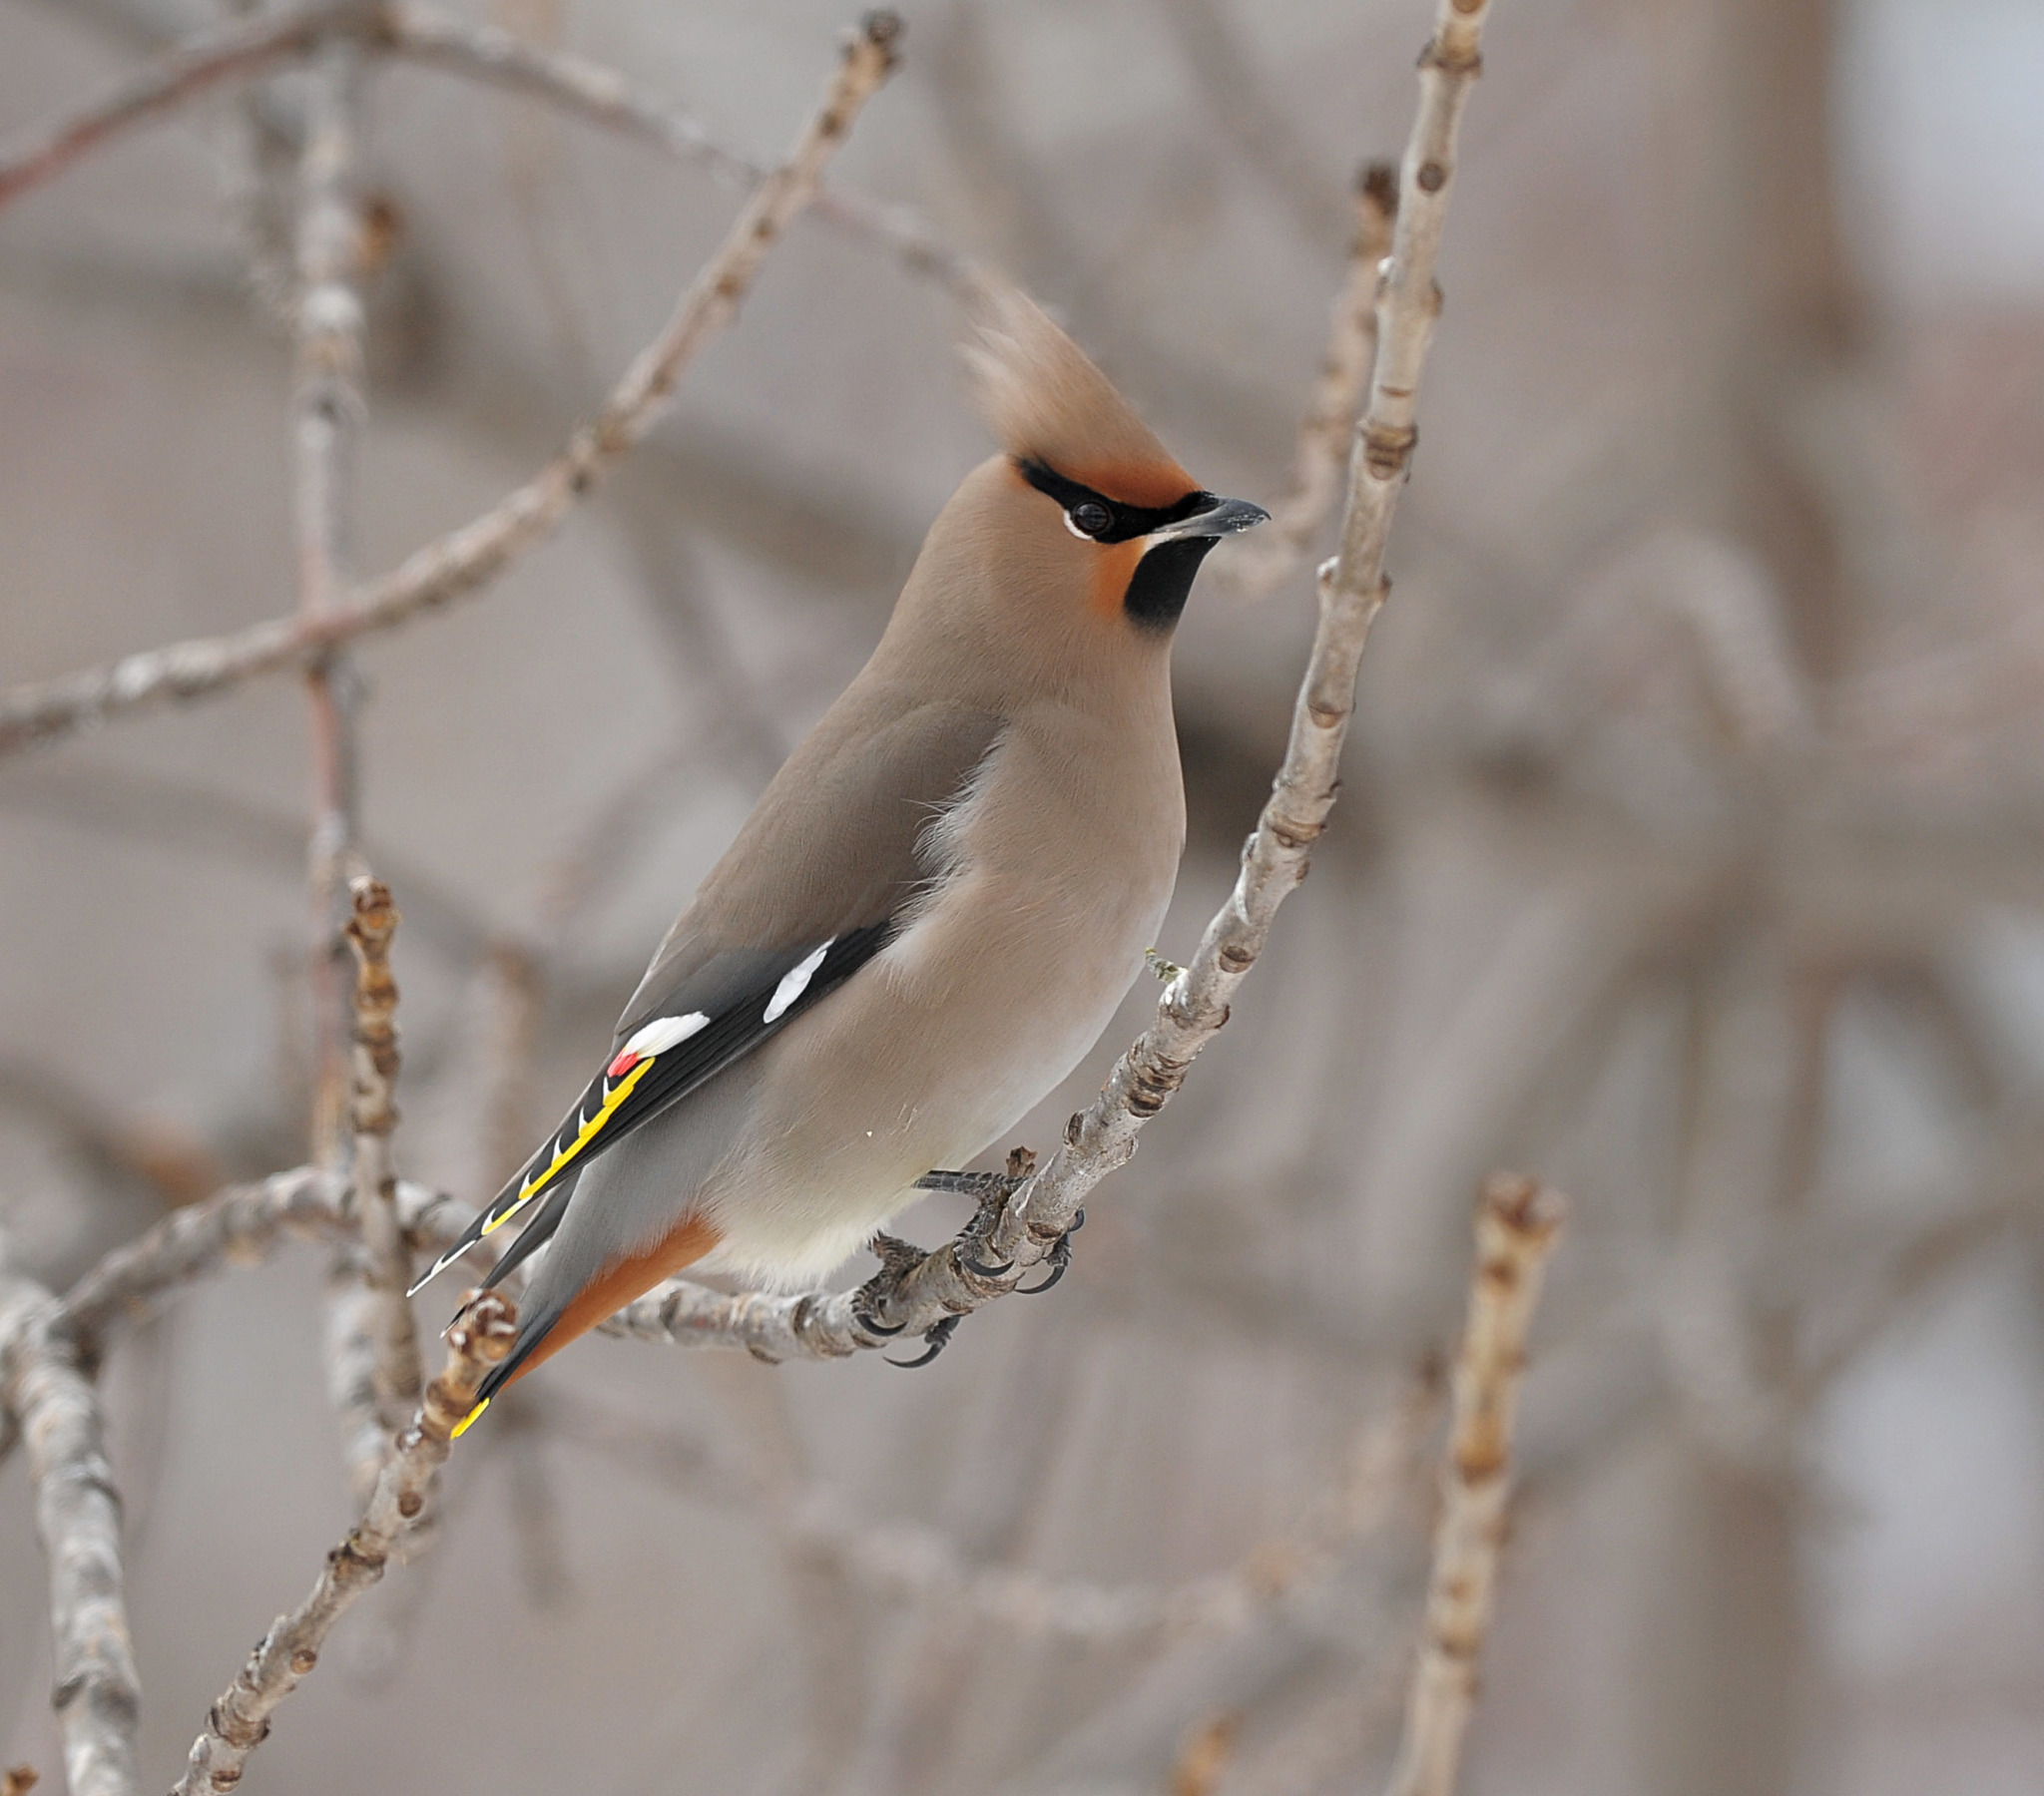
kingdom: Animalia
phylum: Chordata
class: Aves
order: Passeriformes
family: Bombycillidae
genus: Bombycilla
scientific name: Bombycilla garrulus
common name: Bohemian waxwing
